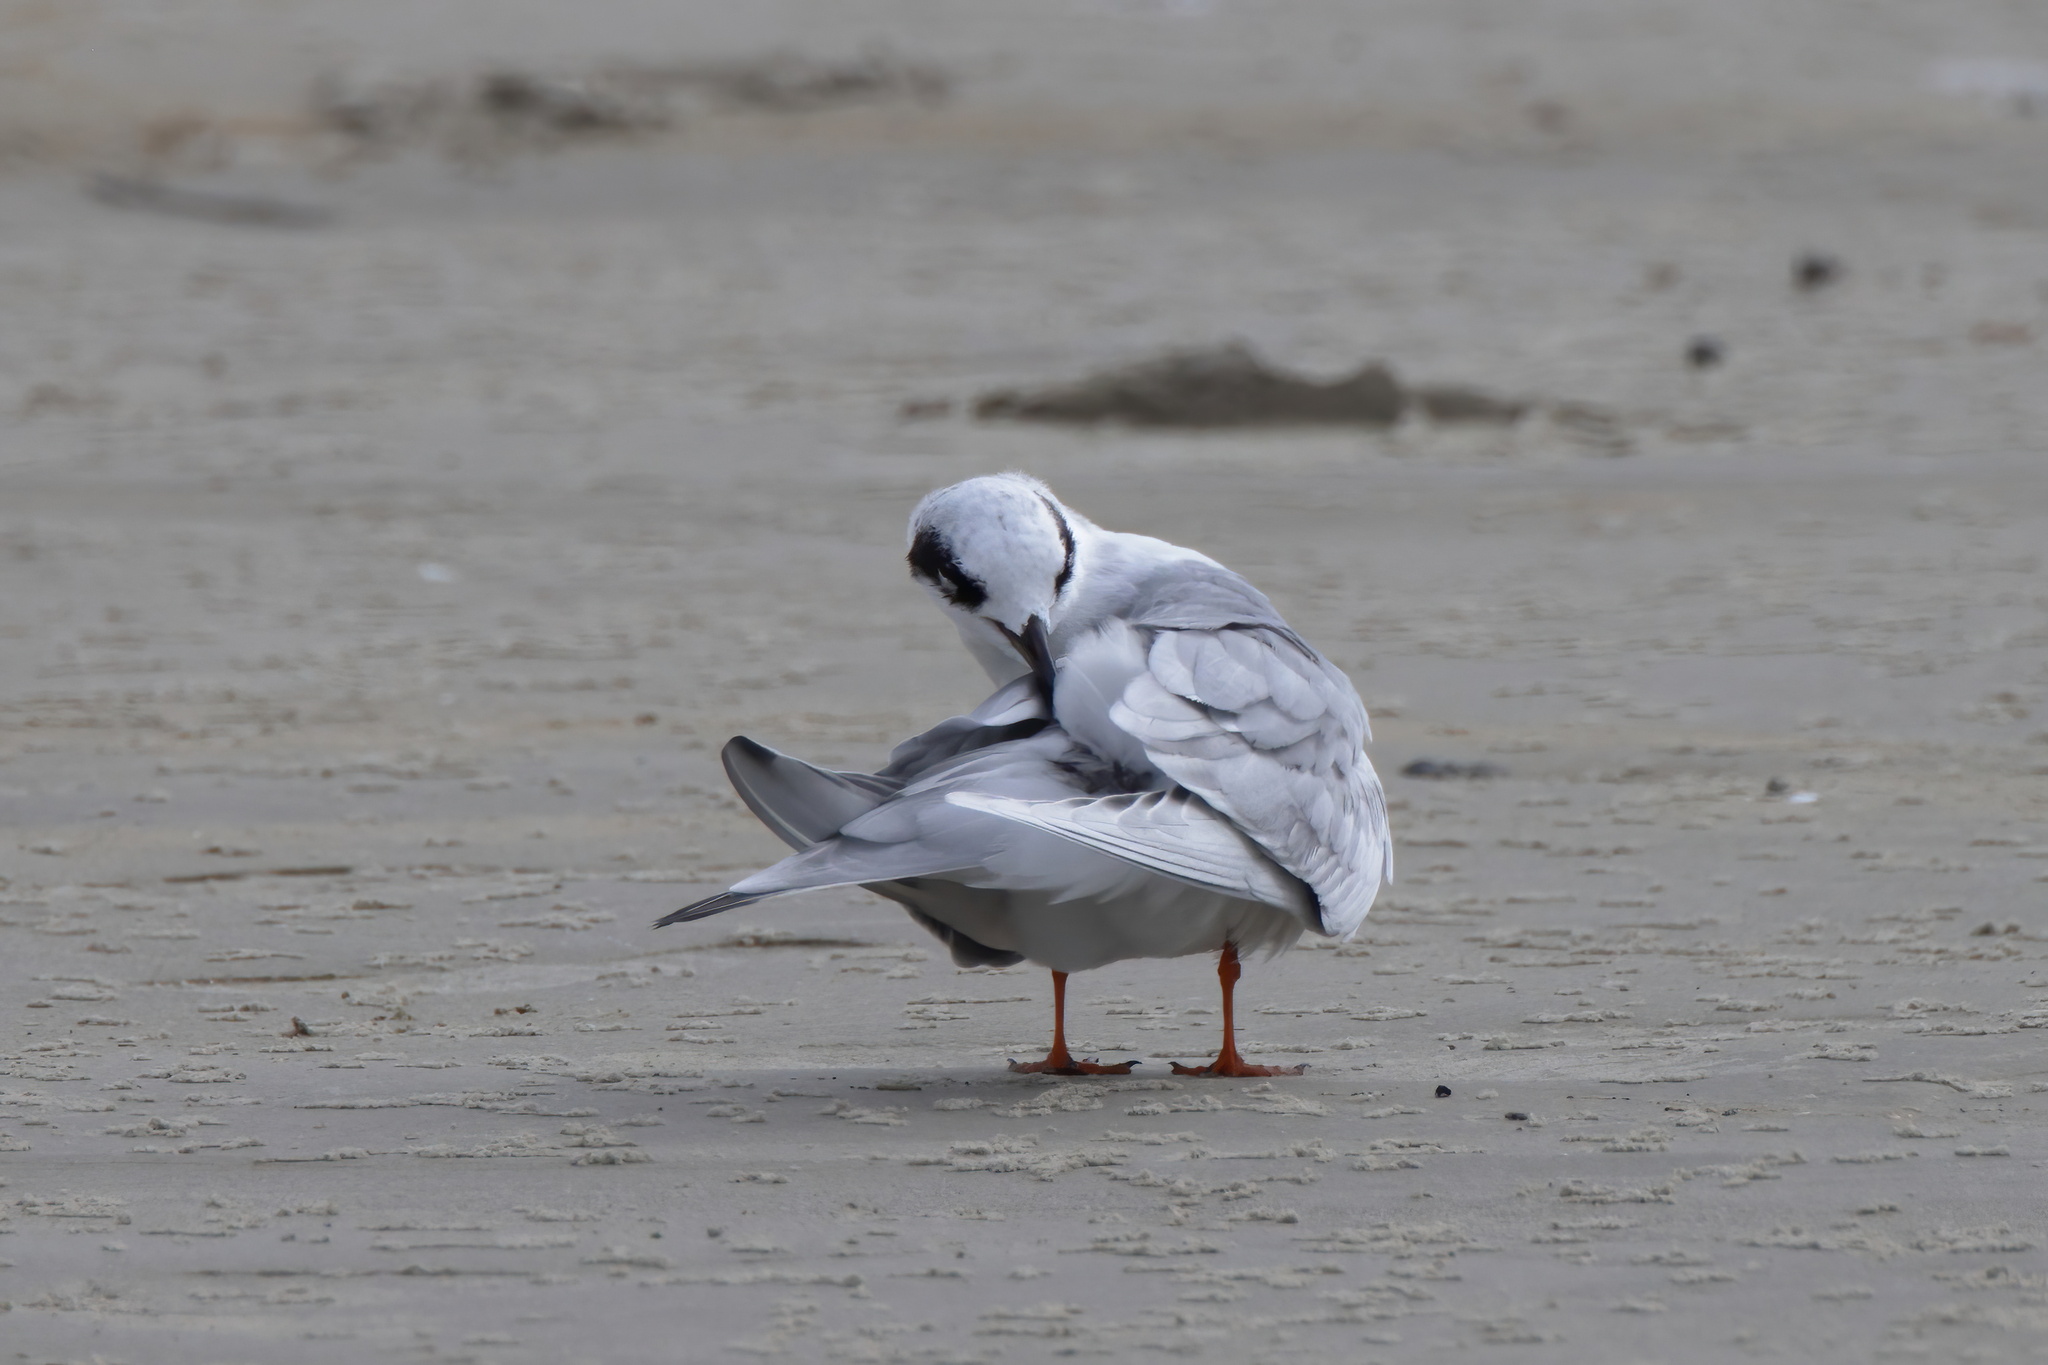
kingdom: Animalia
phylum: Chordata
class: Aves
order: Charadriiformes
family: Laridae
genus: Sterna
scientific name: Sterna forsteri
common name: Forster's tern
